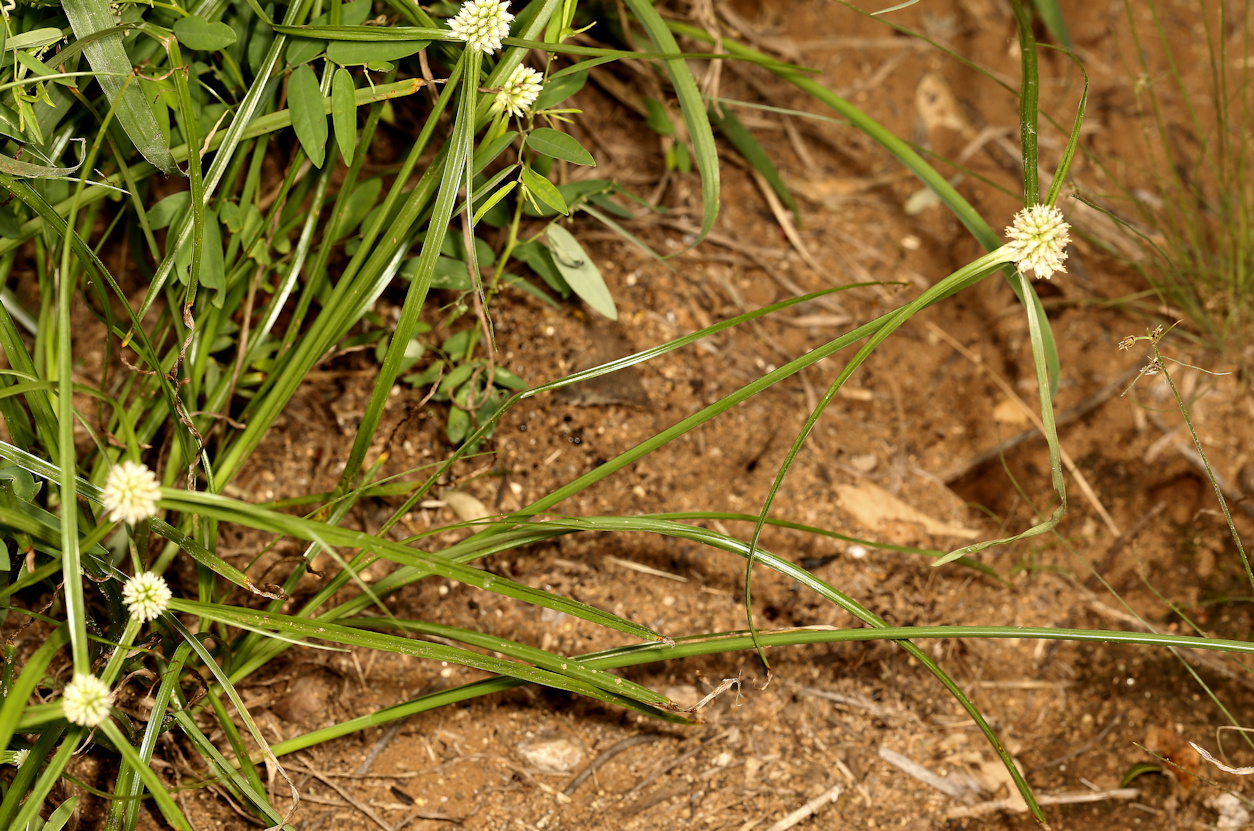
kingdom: Plantae
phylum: Tracheophyta
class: Liliopsida
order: Poales
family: Cyperaceae
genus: Cyperus
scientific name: Cyperus alatus
